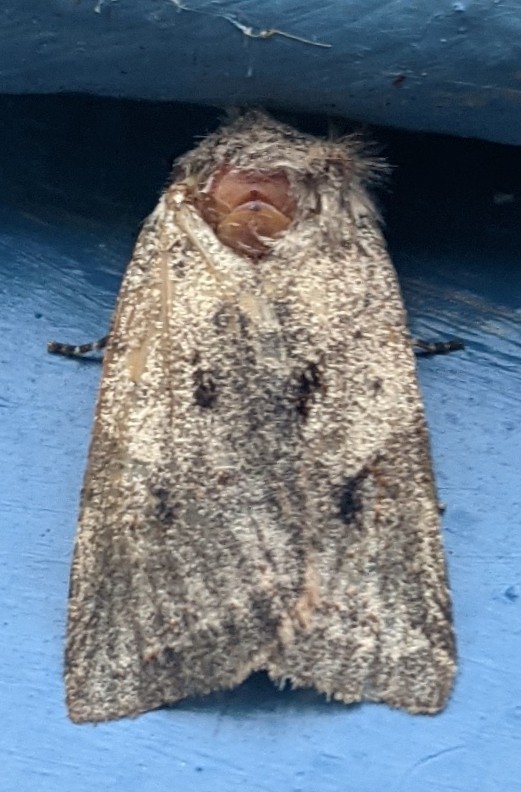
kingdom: Animalia
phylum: Arthropoda
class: Insecta
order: Lepidoptera
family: Noctuidae
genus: Cerastis
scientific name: Cerastis salicarum
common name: Willow dart
